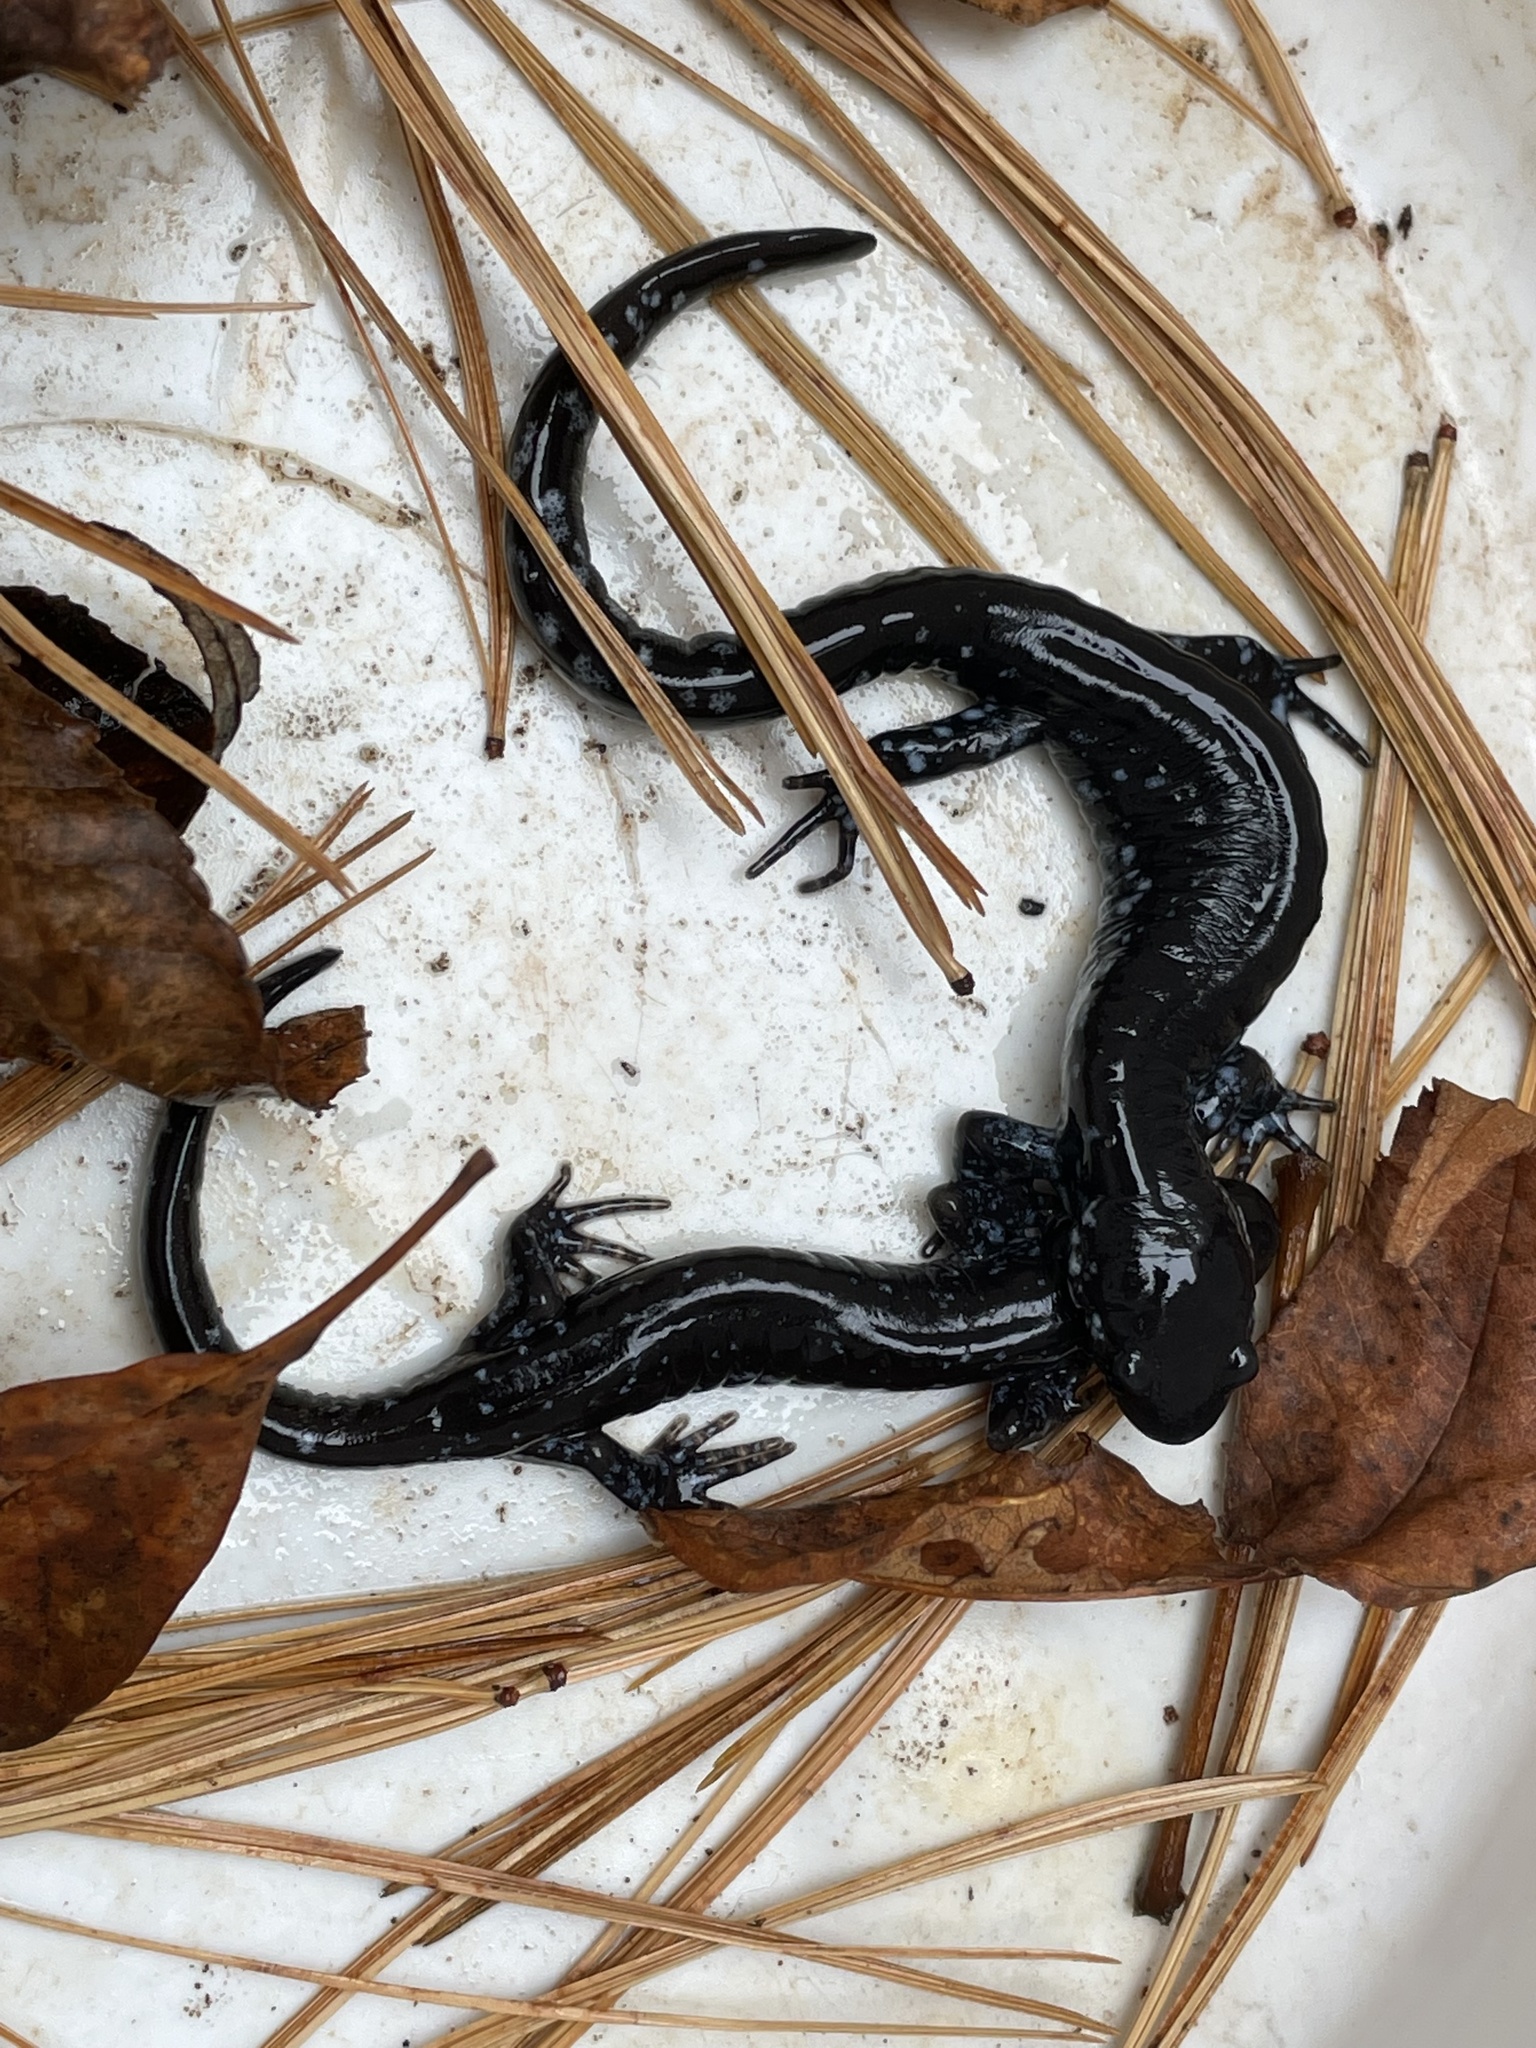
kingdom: Animalia
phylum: Chordata
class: Amphibia
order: Caudata
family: Ambystomatidae
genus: Ambystoma
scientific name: Ambystoma laterale
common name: Blue-spotted salamander
